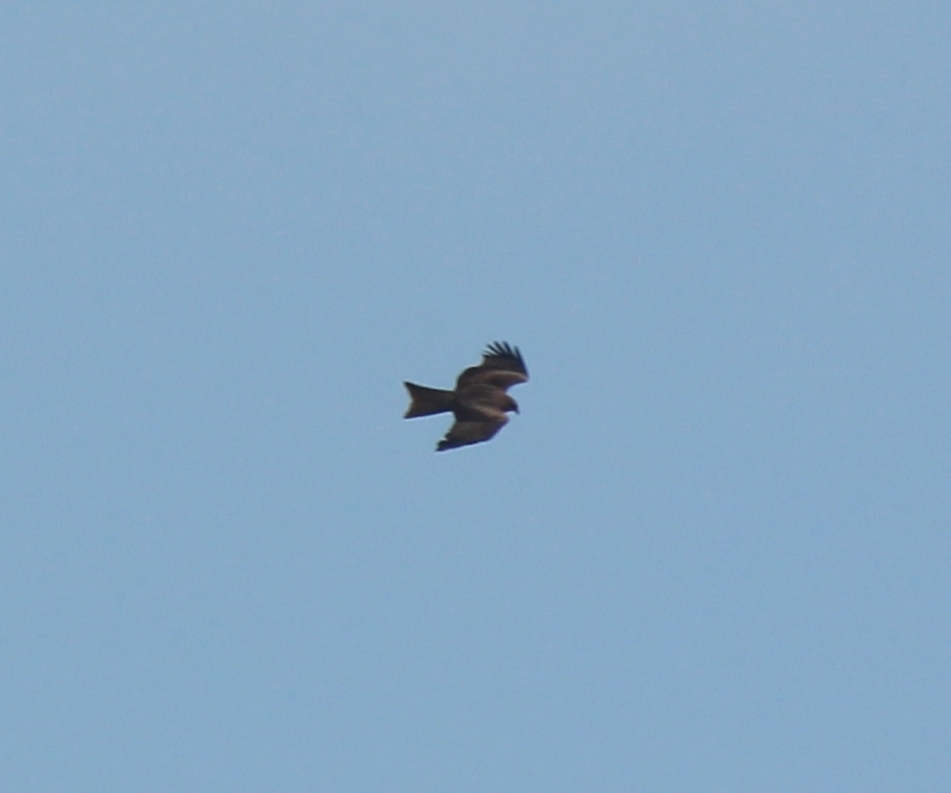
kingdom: Animalia
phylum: Chordata
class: Aves
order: Accipitriformes
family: Accipitridae
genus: Milvus
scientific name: Milvus migrans
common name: Black kite
